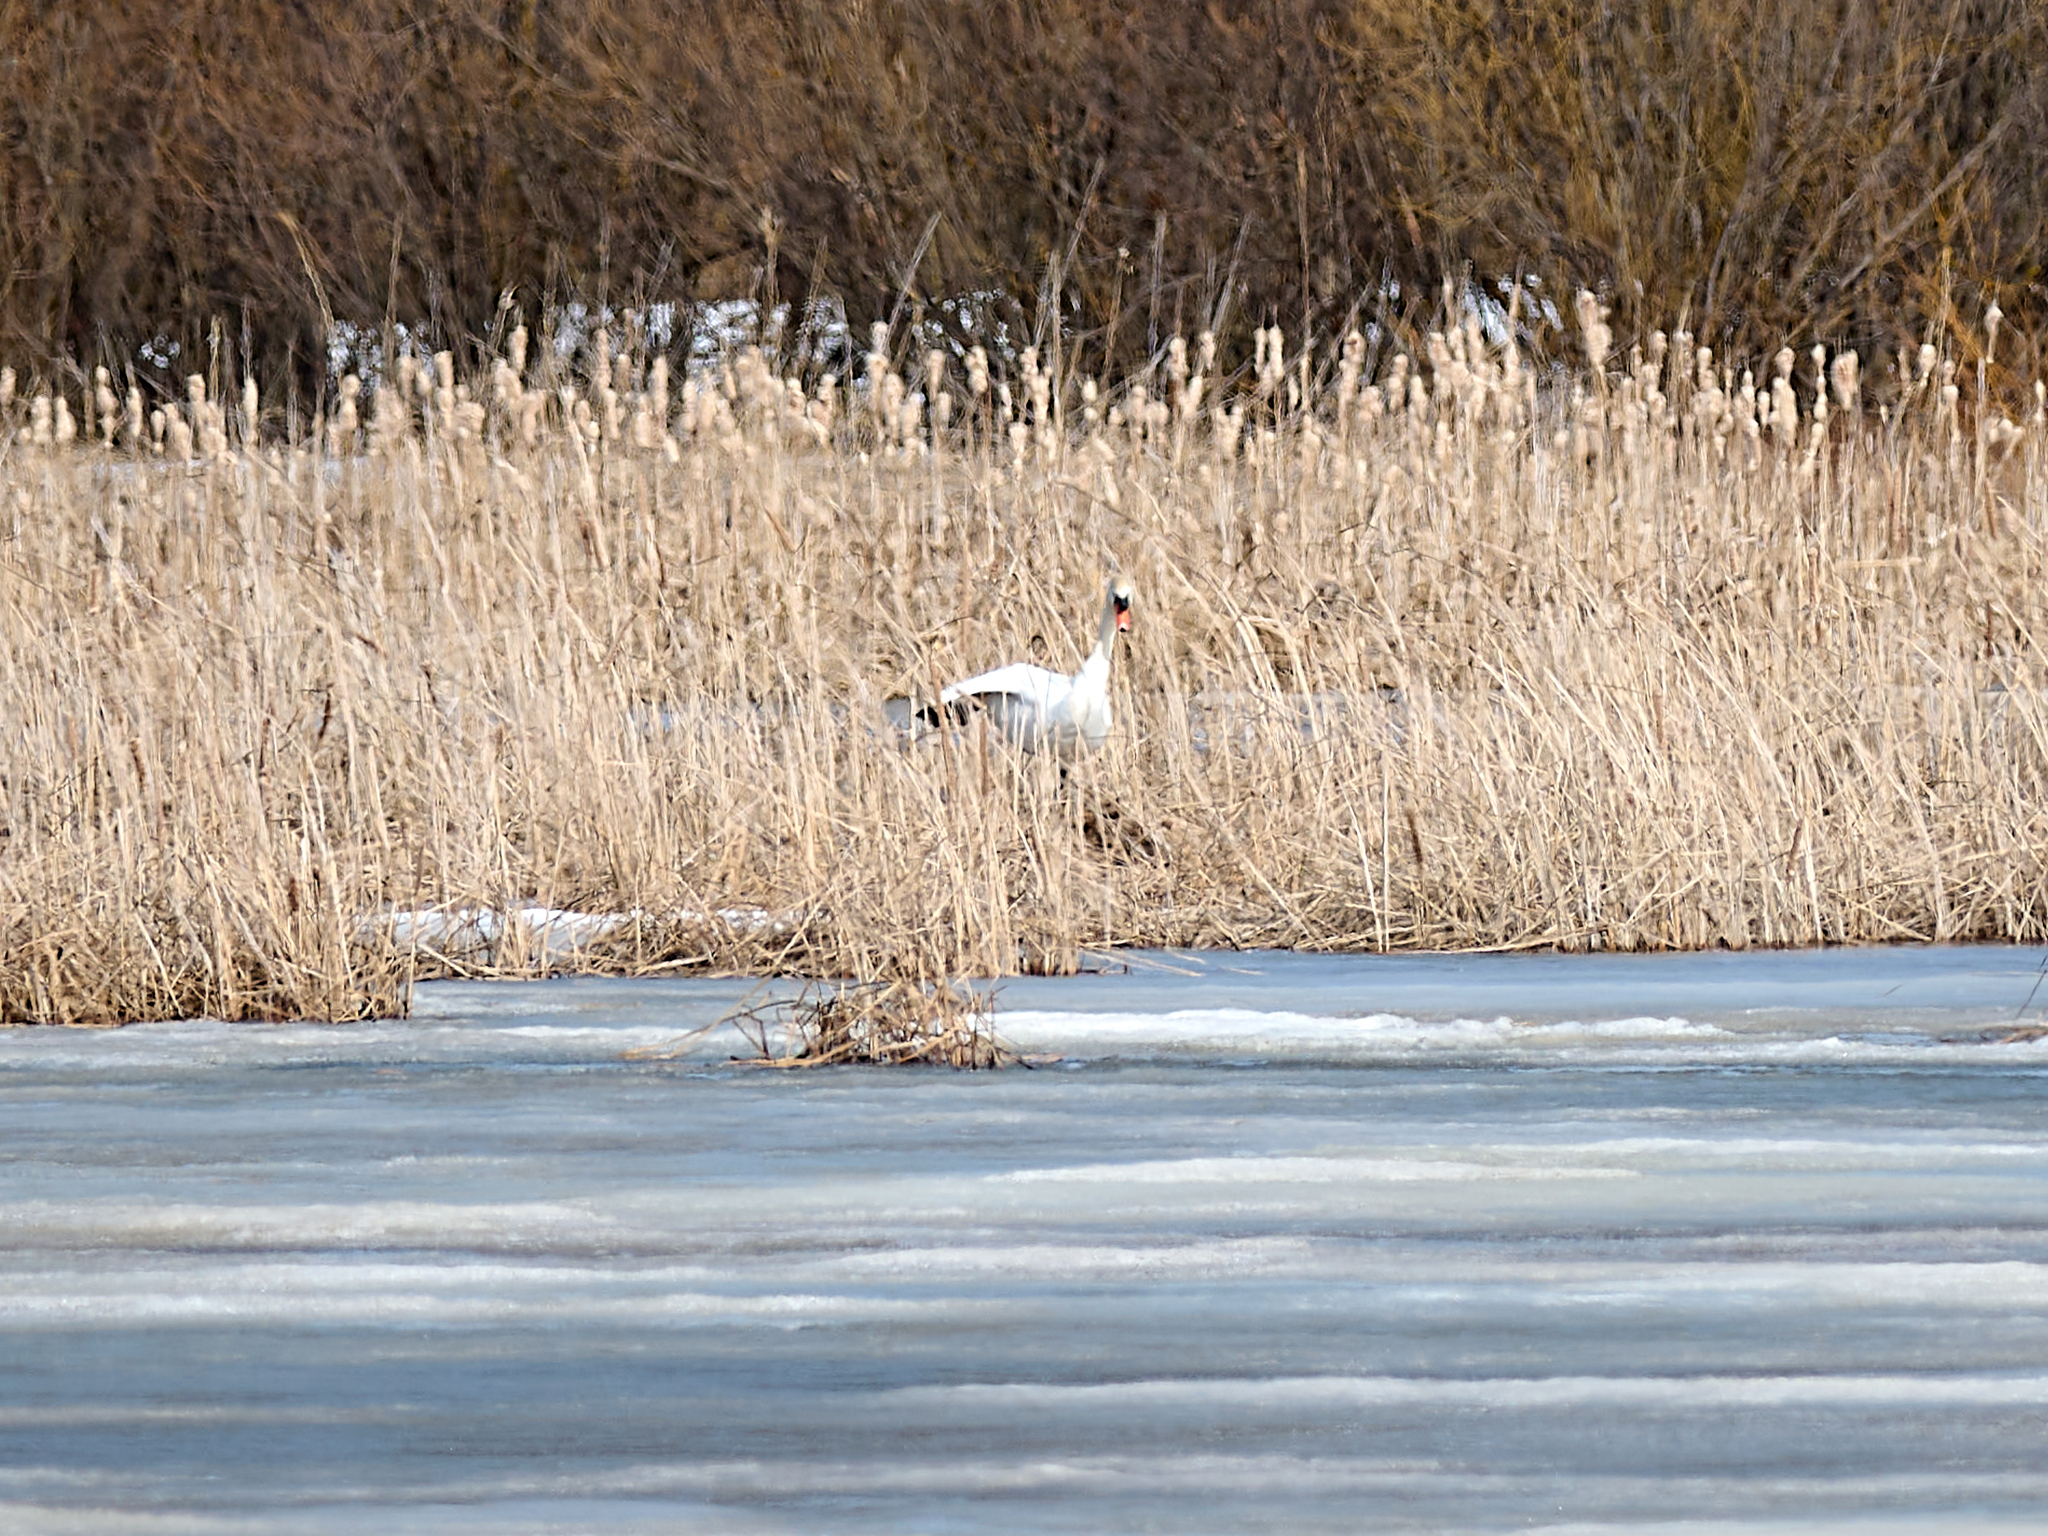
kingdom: Animalia
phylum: Chordata
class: Aves
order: Anseriformes
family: Anatidae
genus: Cygnus
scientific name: Cygnus olor
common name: Mute swan
